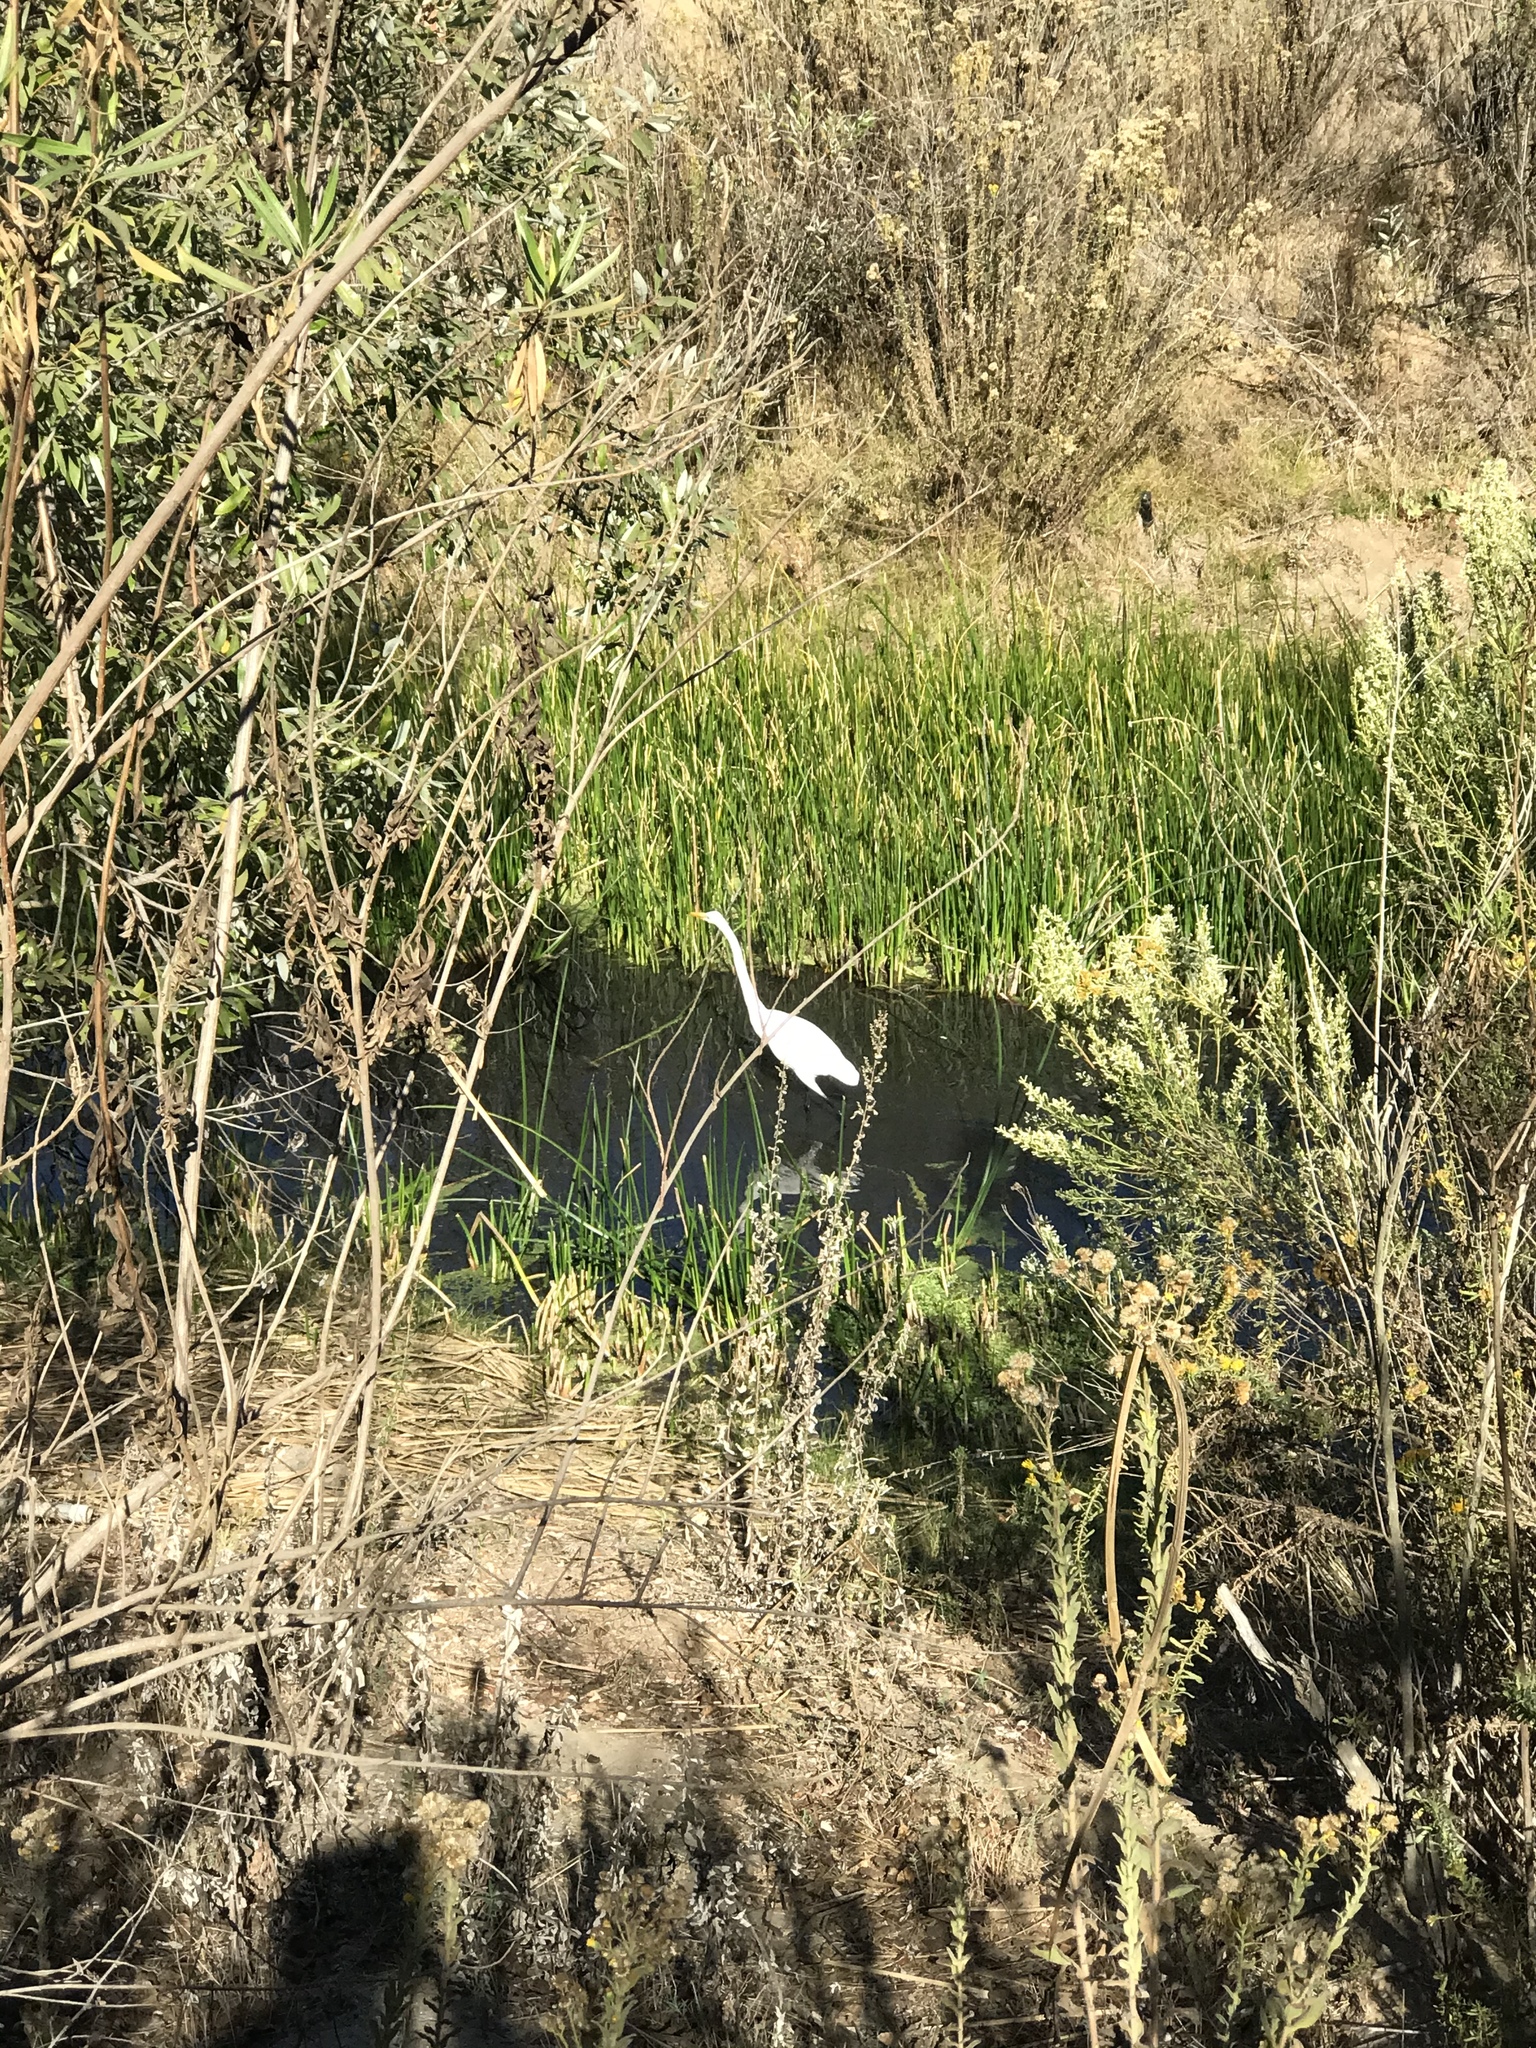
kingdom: Animalia
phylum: Chordata
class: Aves
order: Pelecaniformes
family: Ardeidae
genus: Ardea
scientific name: Ardea alba
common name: Great egret
